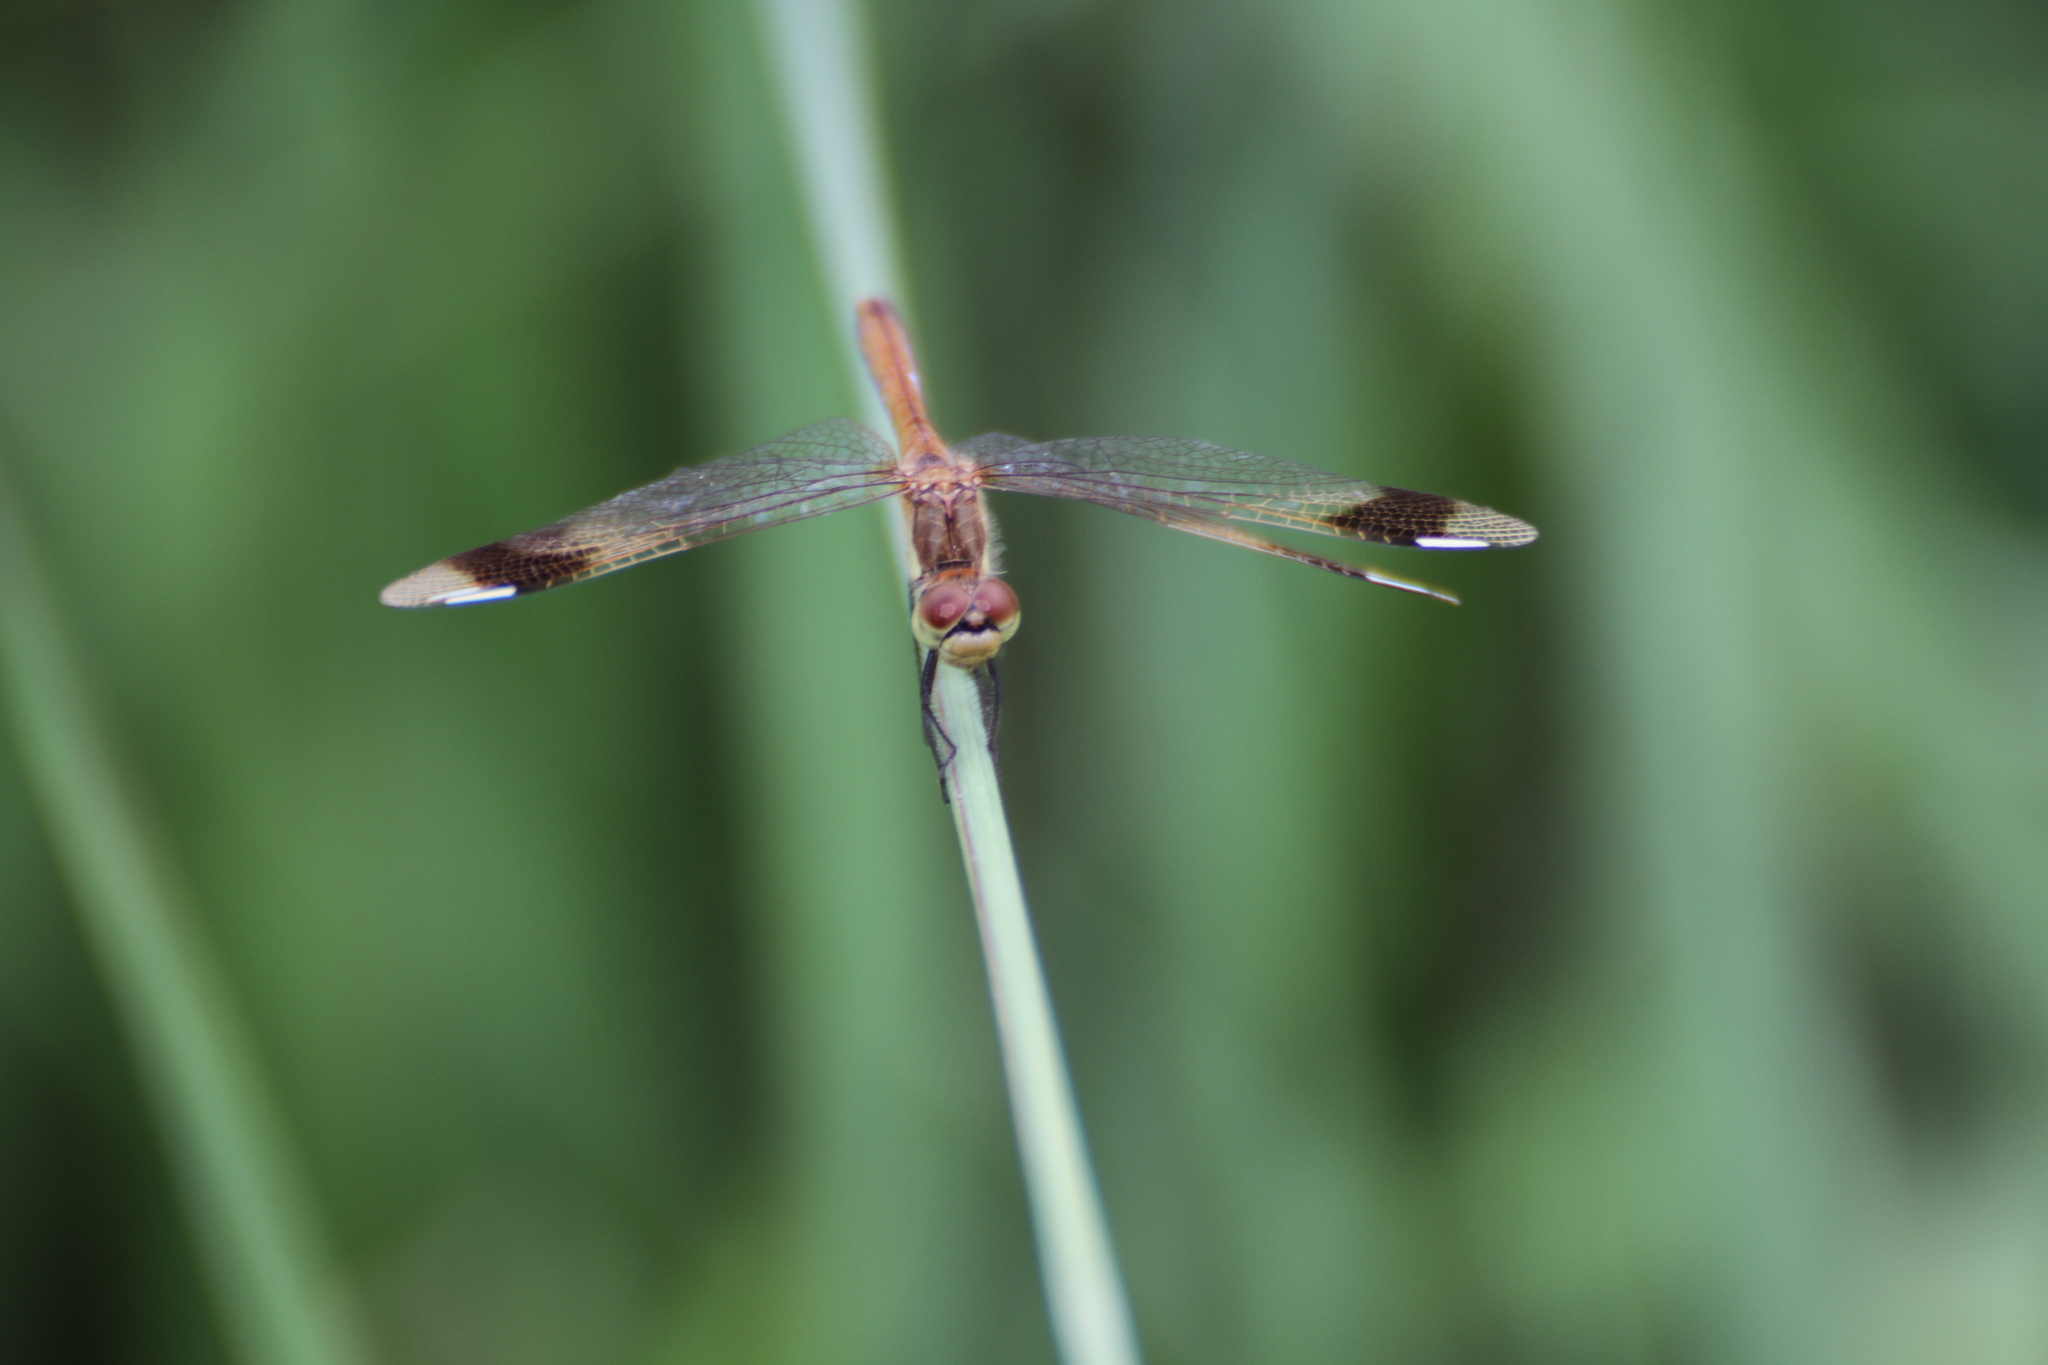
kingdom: Animalia
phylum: Arthropoda
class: Insecta
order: Odonata
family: Libellulidae
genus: Sympetrum
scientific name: Sympetrum pedemontanum
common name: Banded darter
